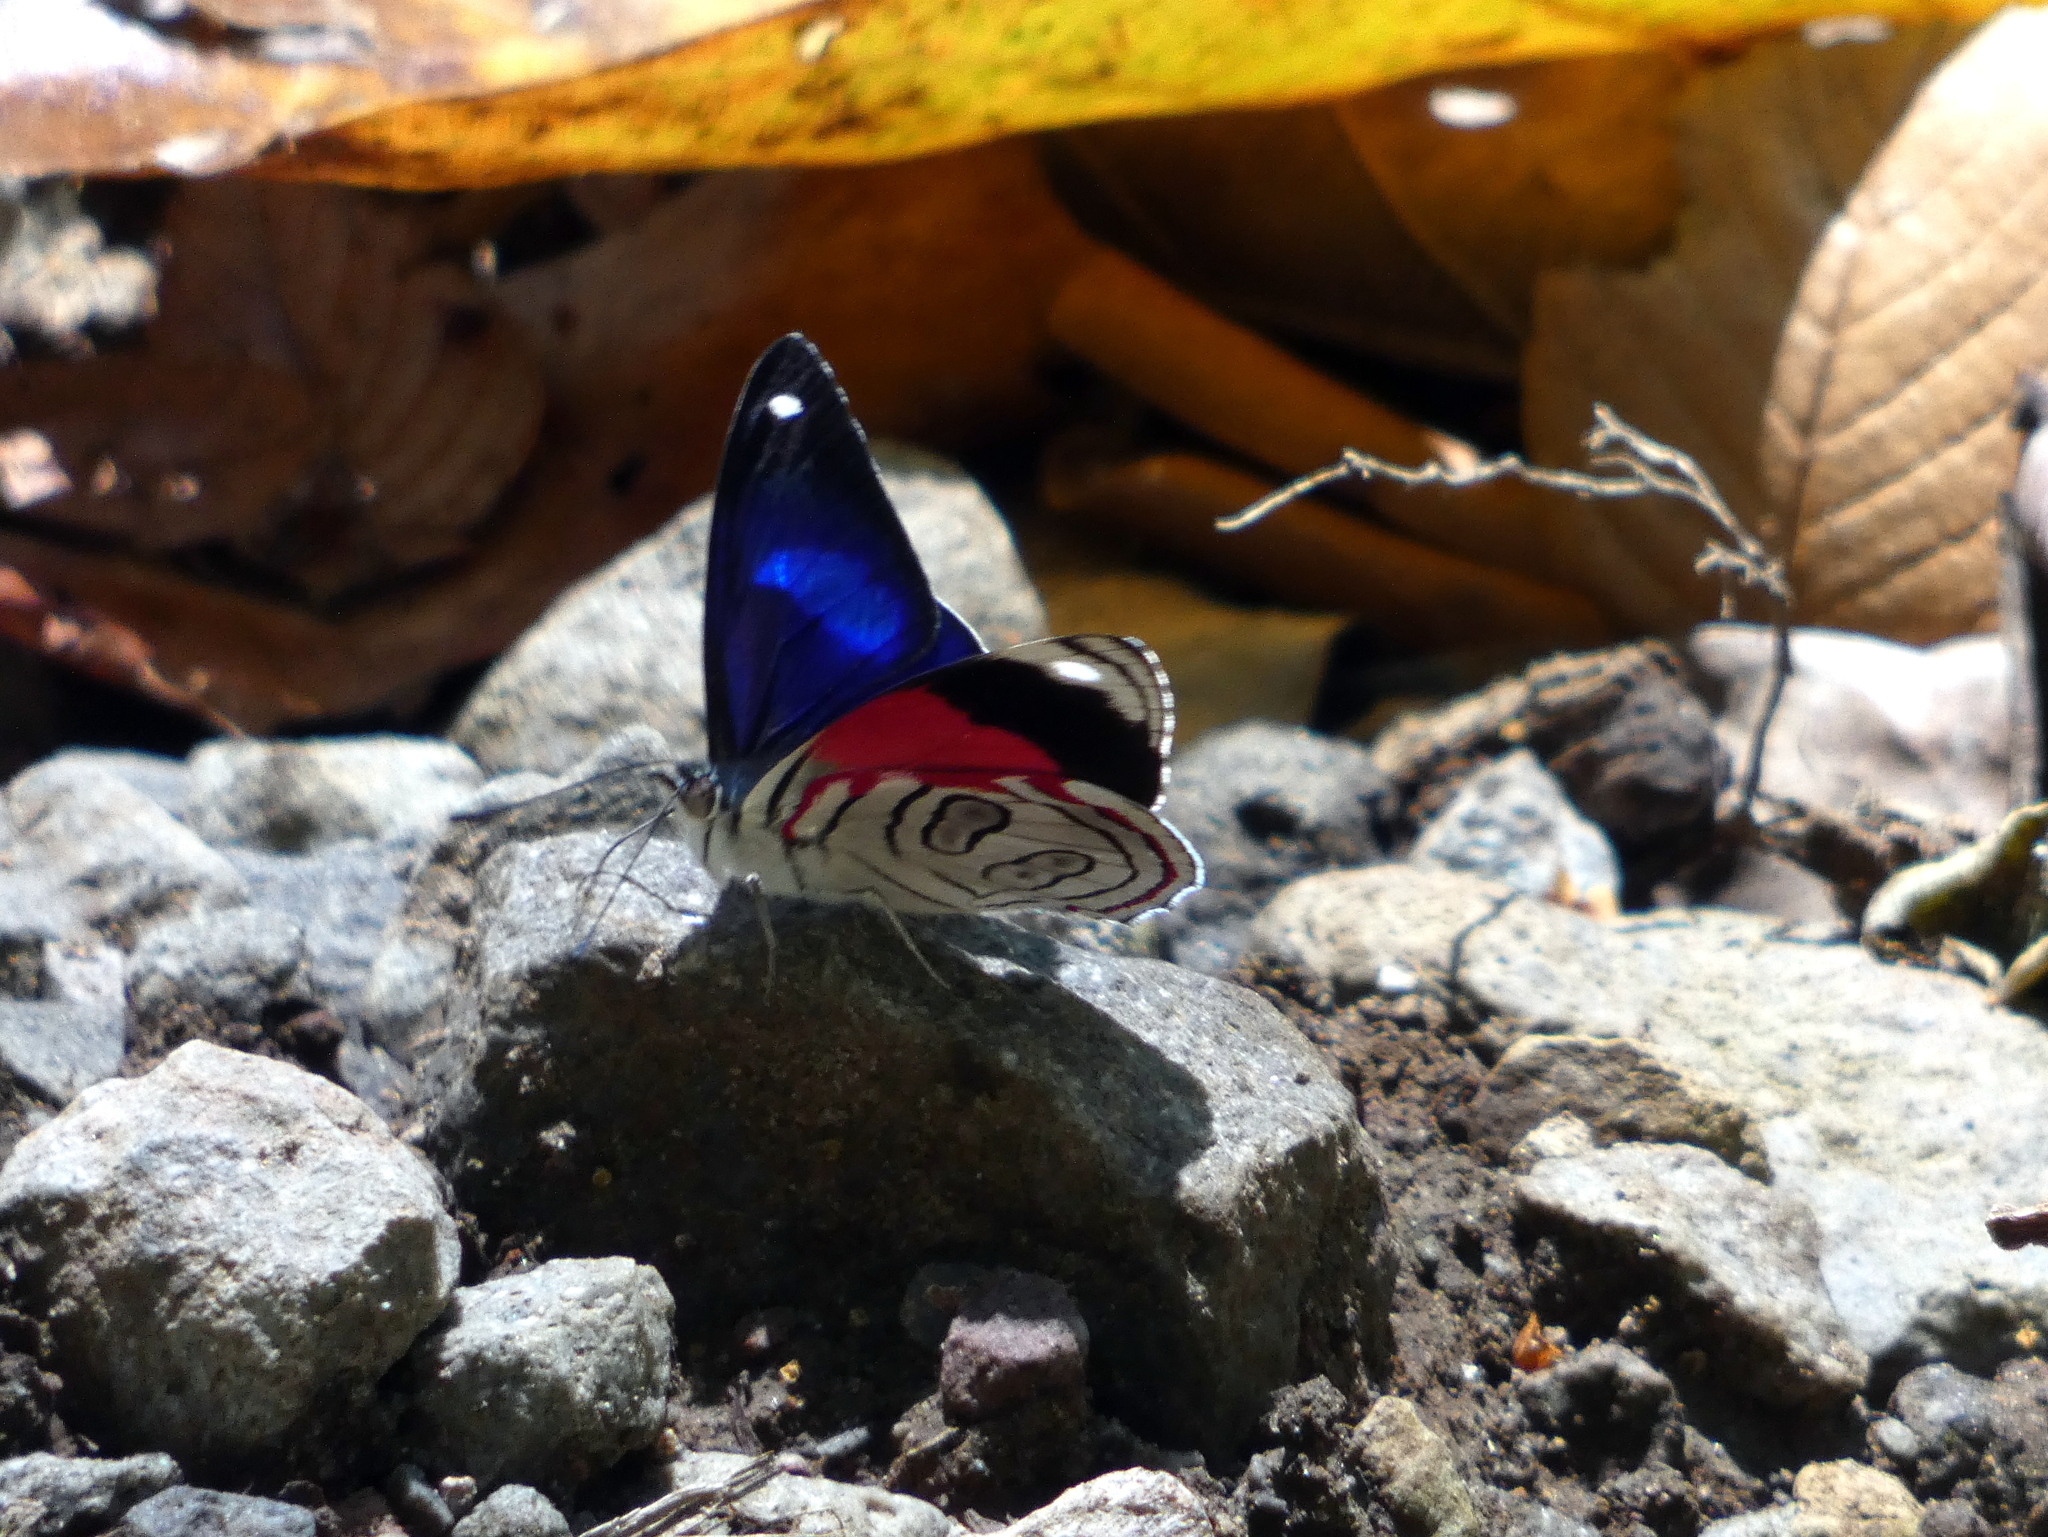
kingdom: Animalia
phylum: Arthropoda
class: Insecta
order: Lepidoptera
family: Nymphalidae
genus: Diaethria
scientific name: Diaethria astala
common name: Navy eighty-eight
